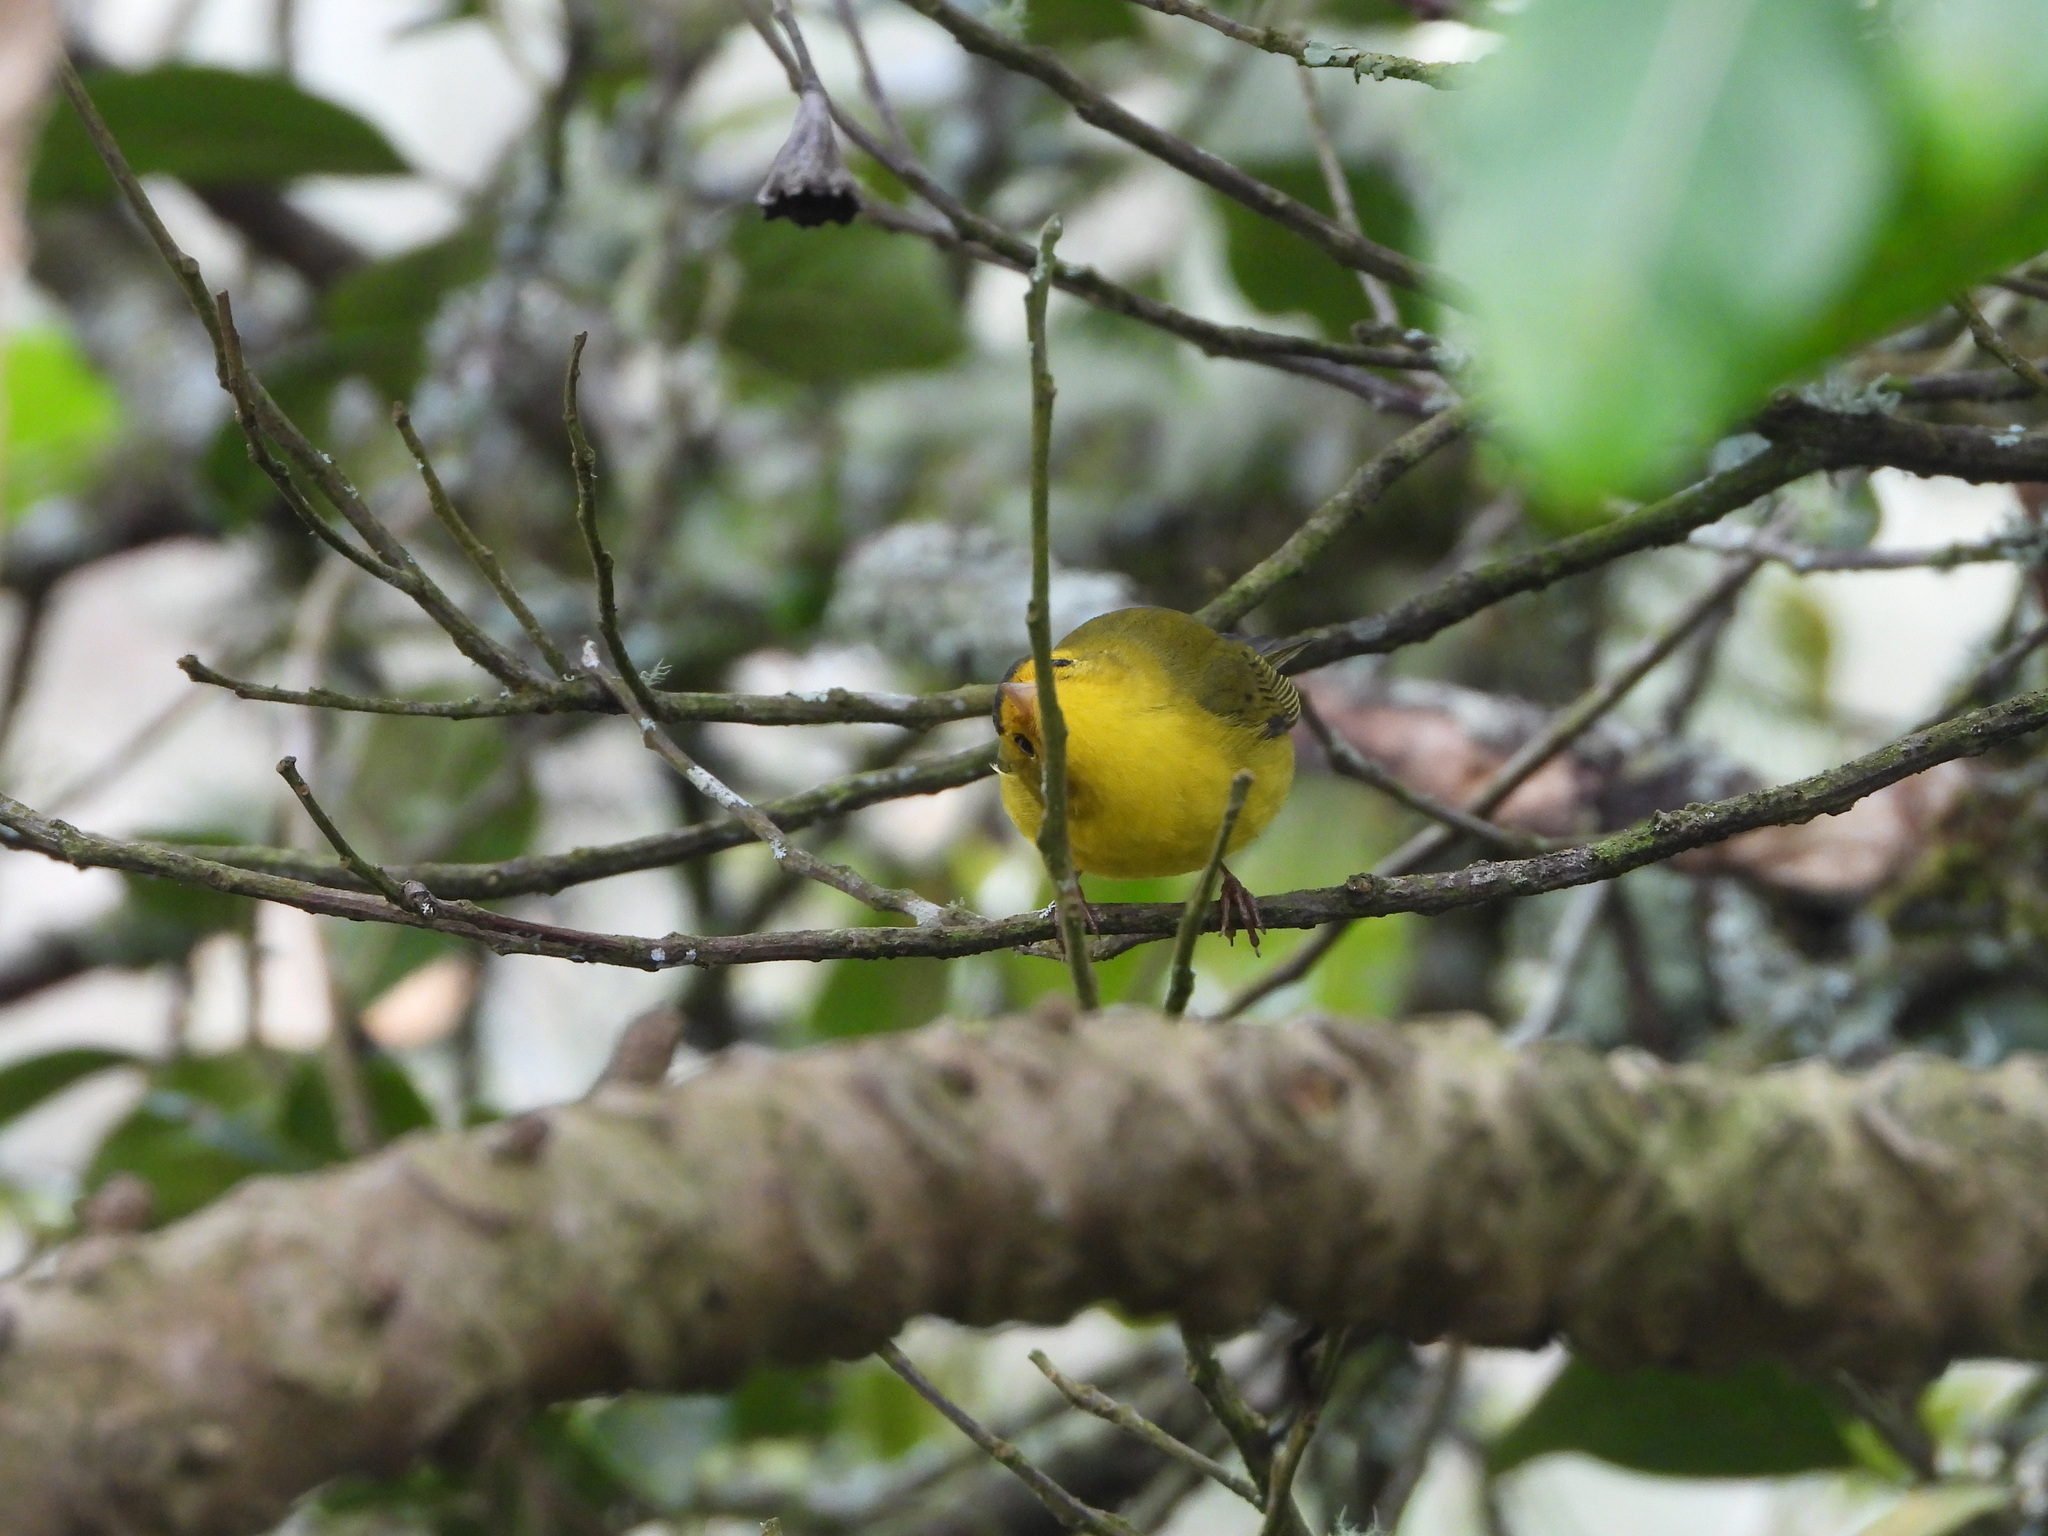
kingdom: Animalia
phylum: Chordata
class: Aves
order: Passeriformes
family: Parulidae
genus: Cardellina
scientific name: Cardellina pusilla
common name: Wilson's warbler
